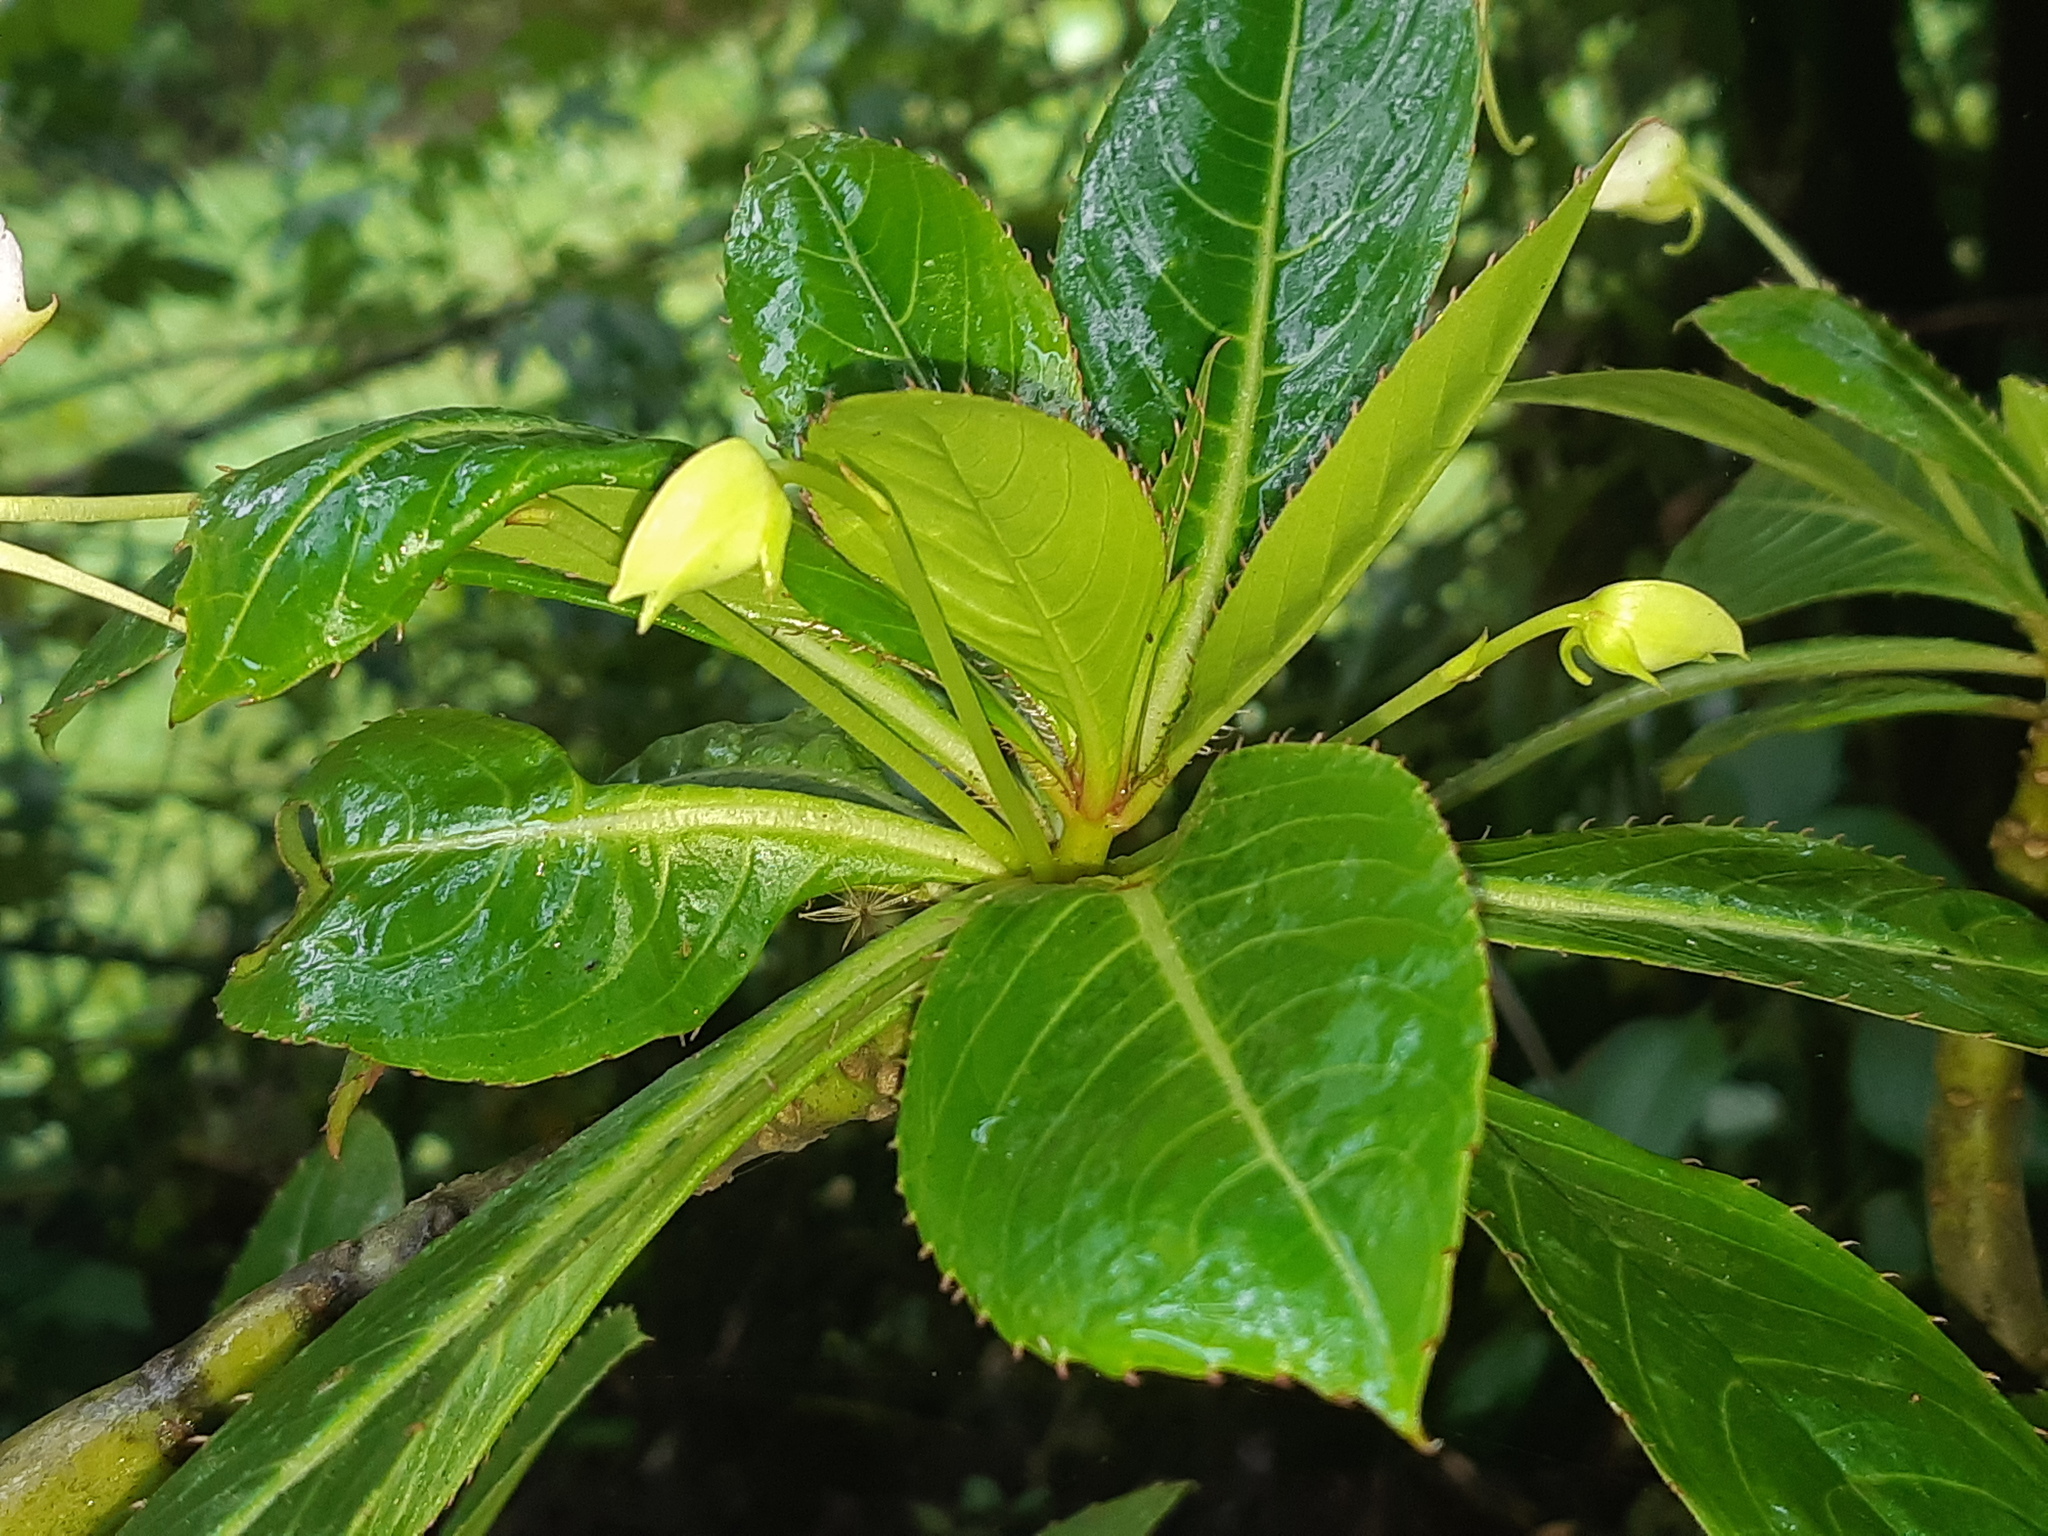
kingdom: Plantae
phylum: Tracheophyta
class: Magnoliopsida
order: Ericales
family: Balsaminaceae
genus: Impatiens
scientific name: Impatiens sodenii
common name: Oliver's touch-me-not
